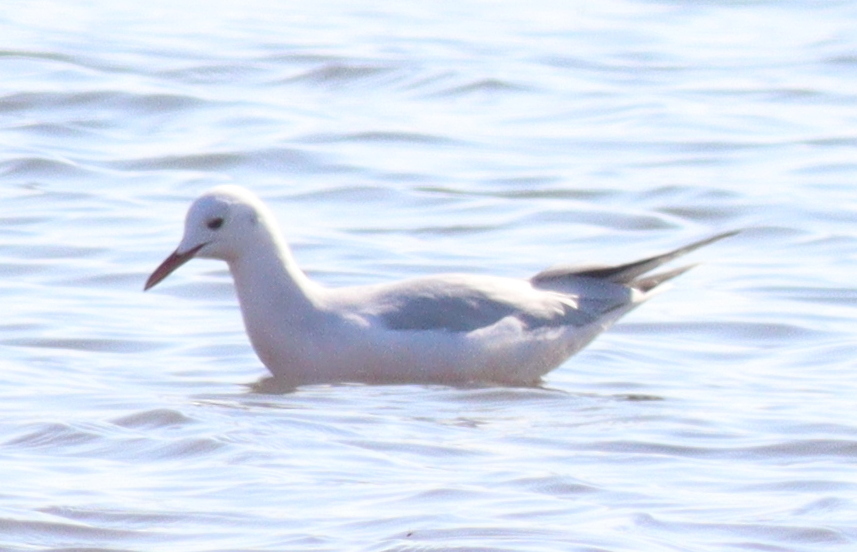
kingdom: Animalia
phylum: Chordata
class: Aves
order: Charadriiformes
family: Laridae
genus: Chroicocephalus
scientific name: Chroicocephalus genei
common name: Slender-billed gull
